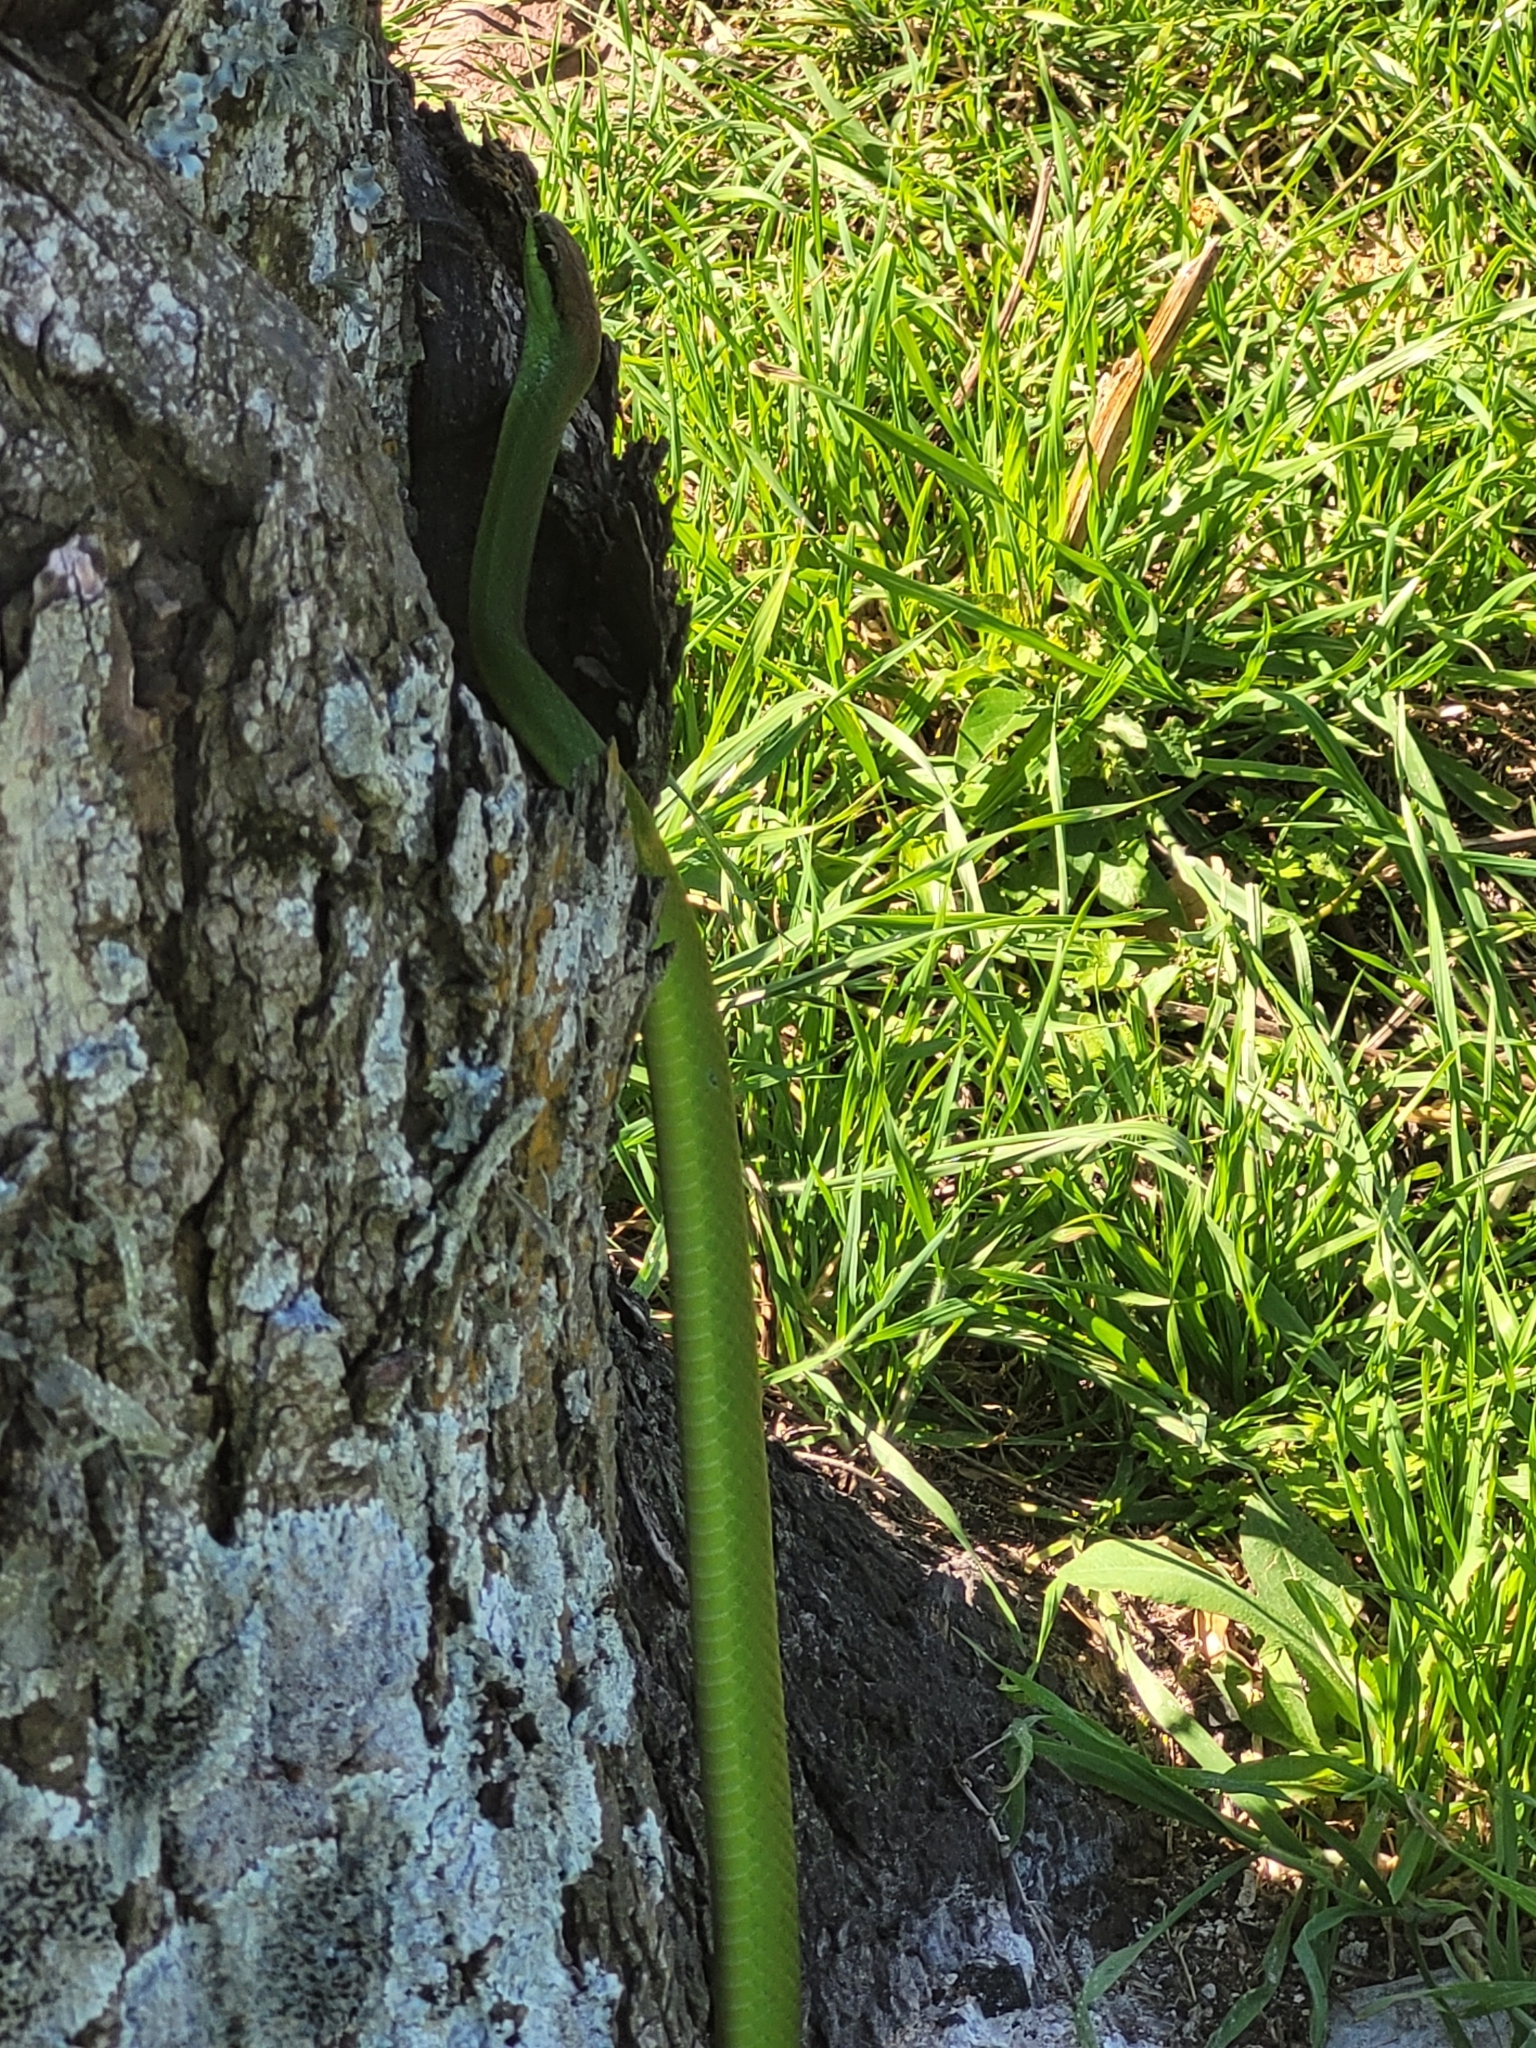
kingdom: Animalia
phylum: Chordata
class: Squamata
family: Colubridae
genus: Philodryas
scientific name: Philodryas olfersii
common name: Lichtenstein's green racer
